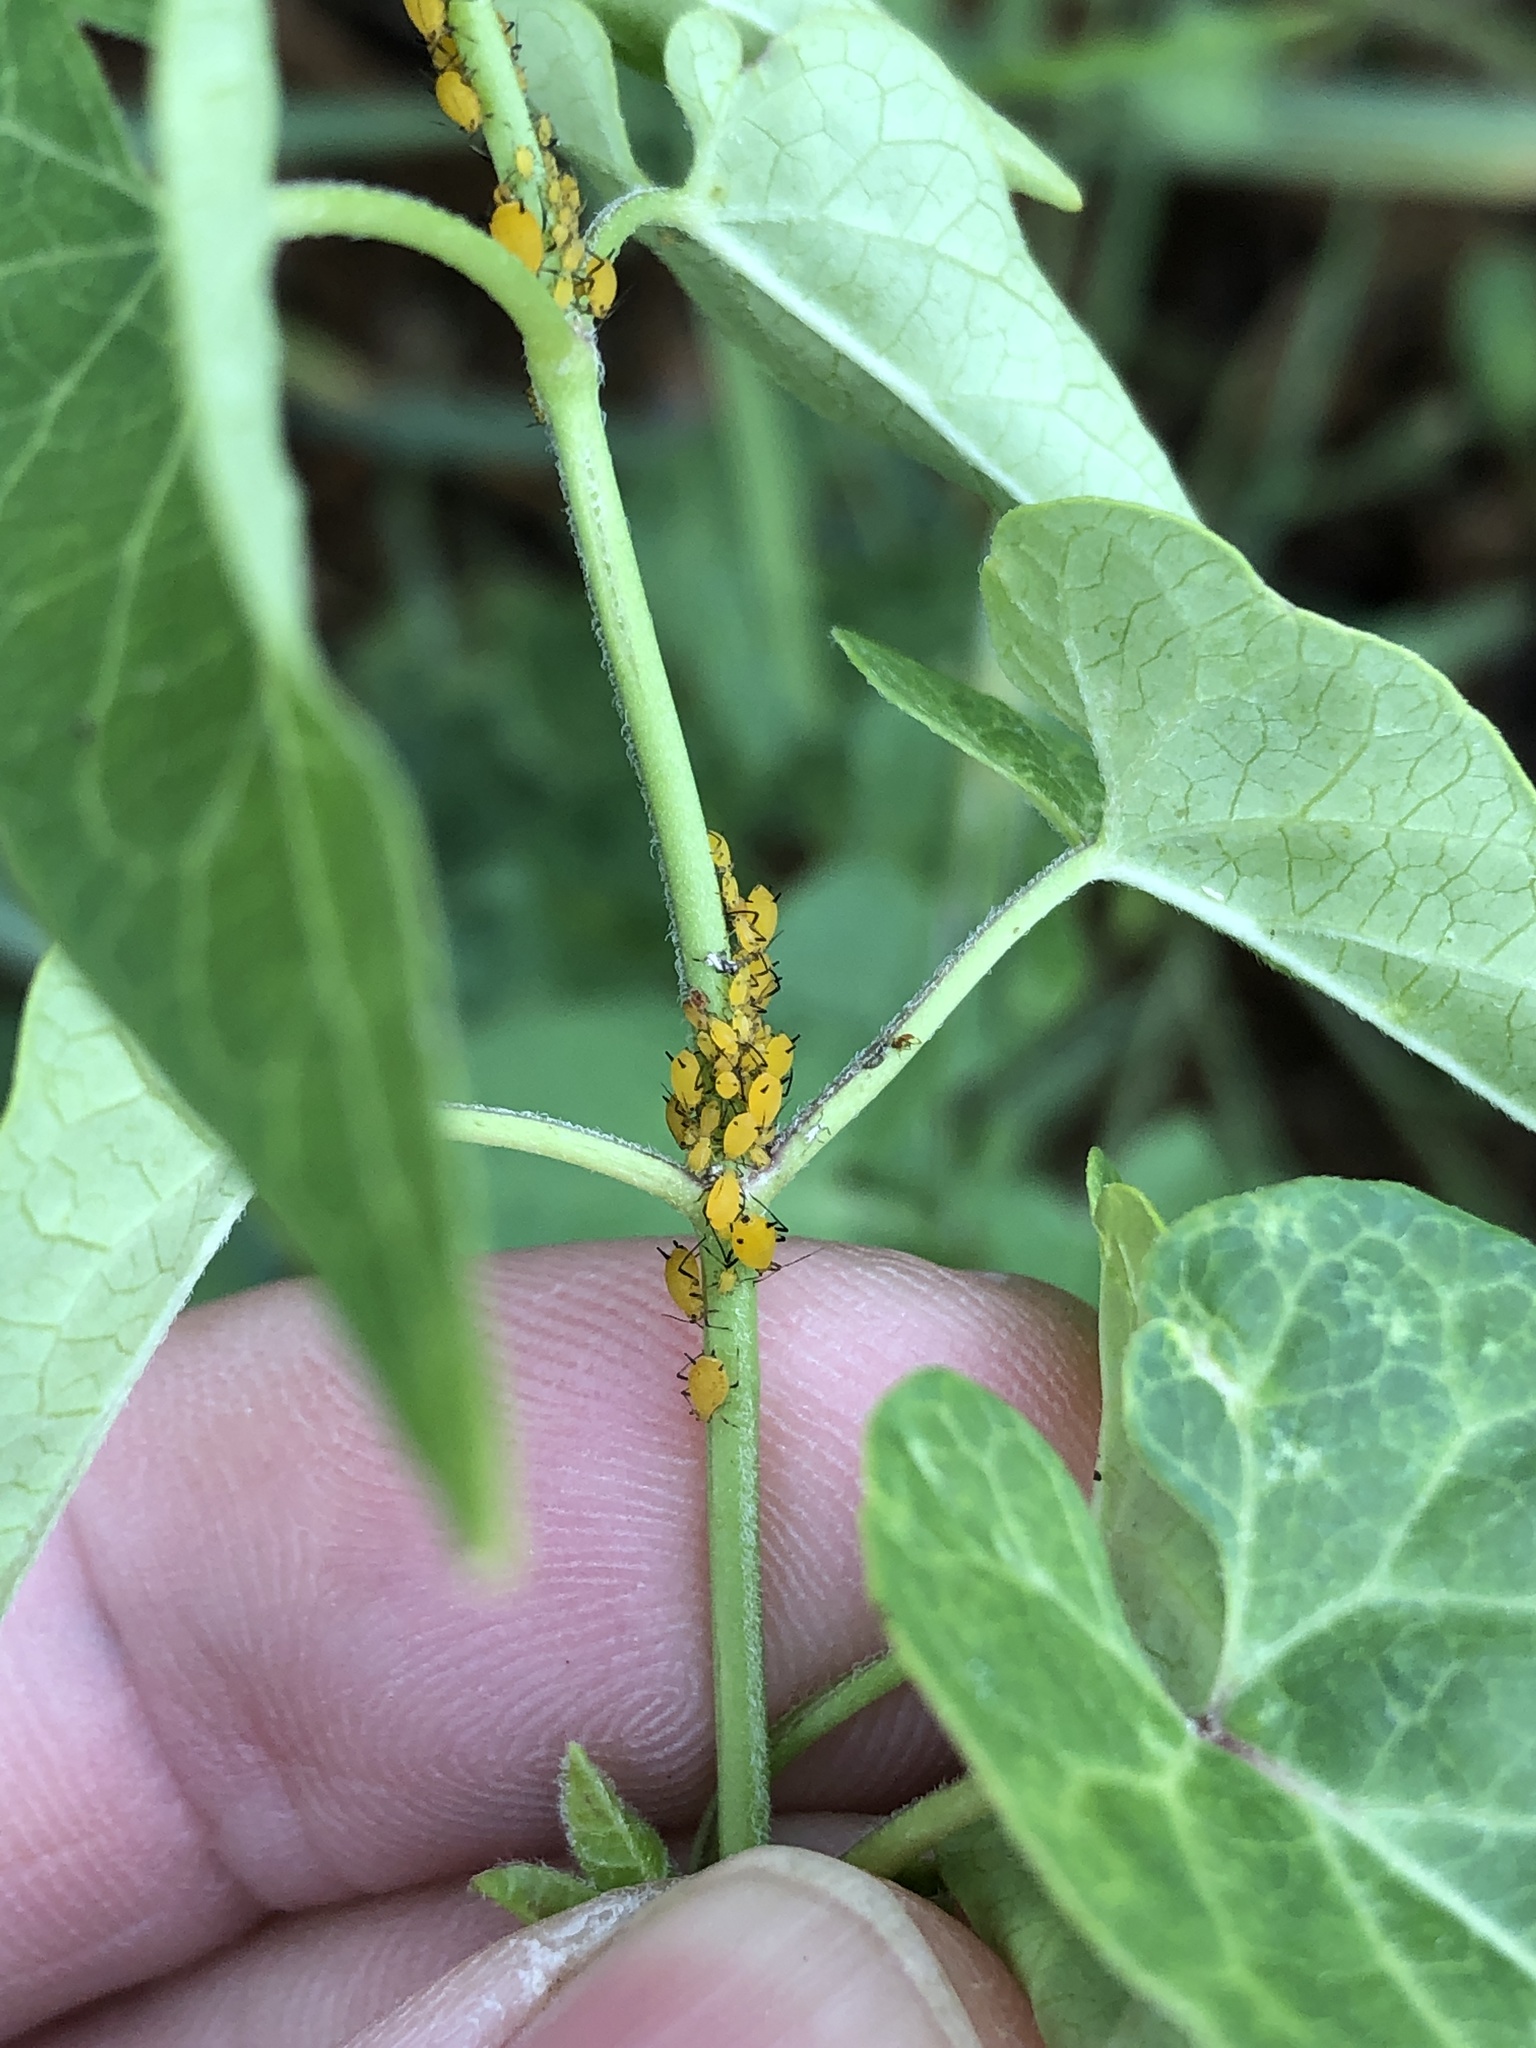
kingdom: Animalia
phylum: Arthropoda
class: Insecta
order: Hemiptera
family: Aphididae
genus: Aphis
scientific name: Aphis nerii
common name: Oleander aphid
